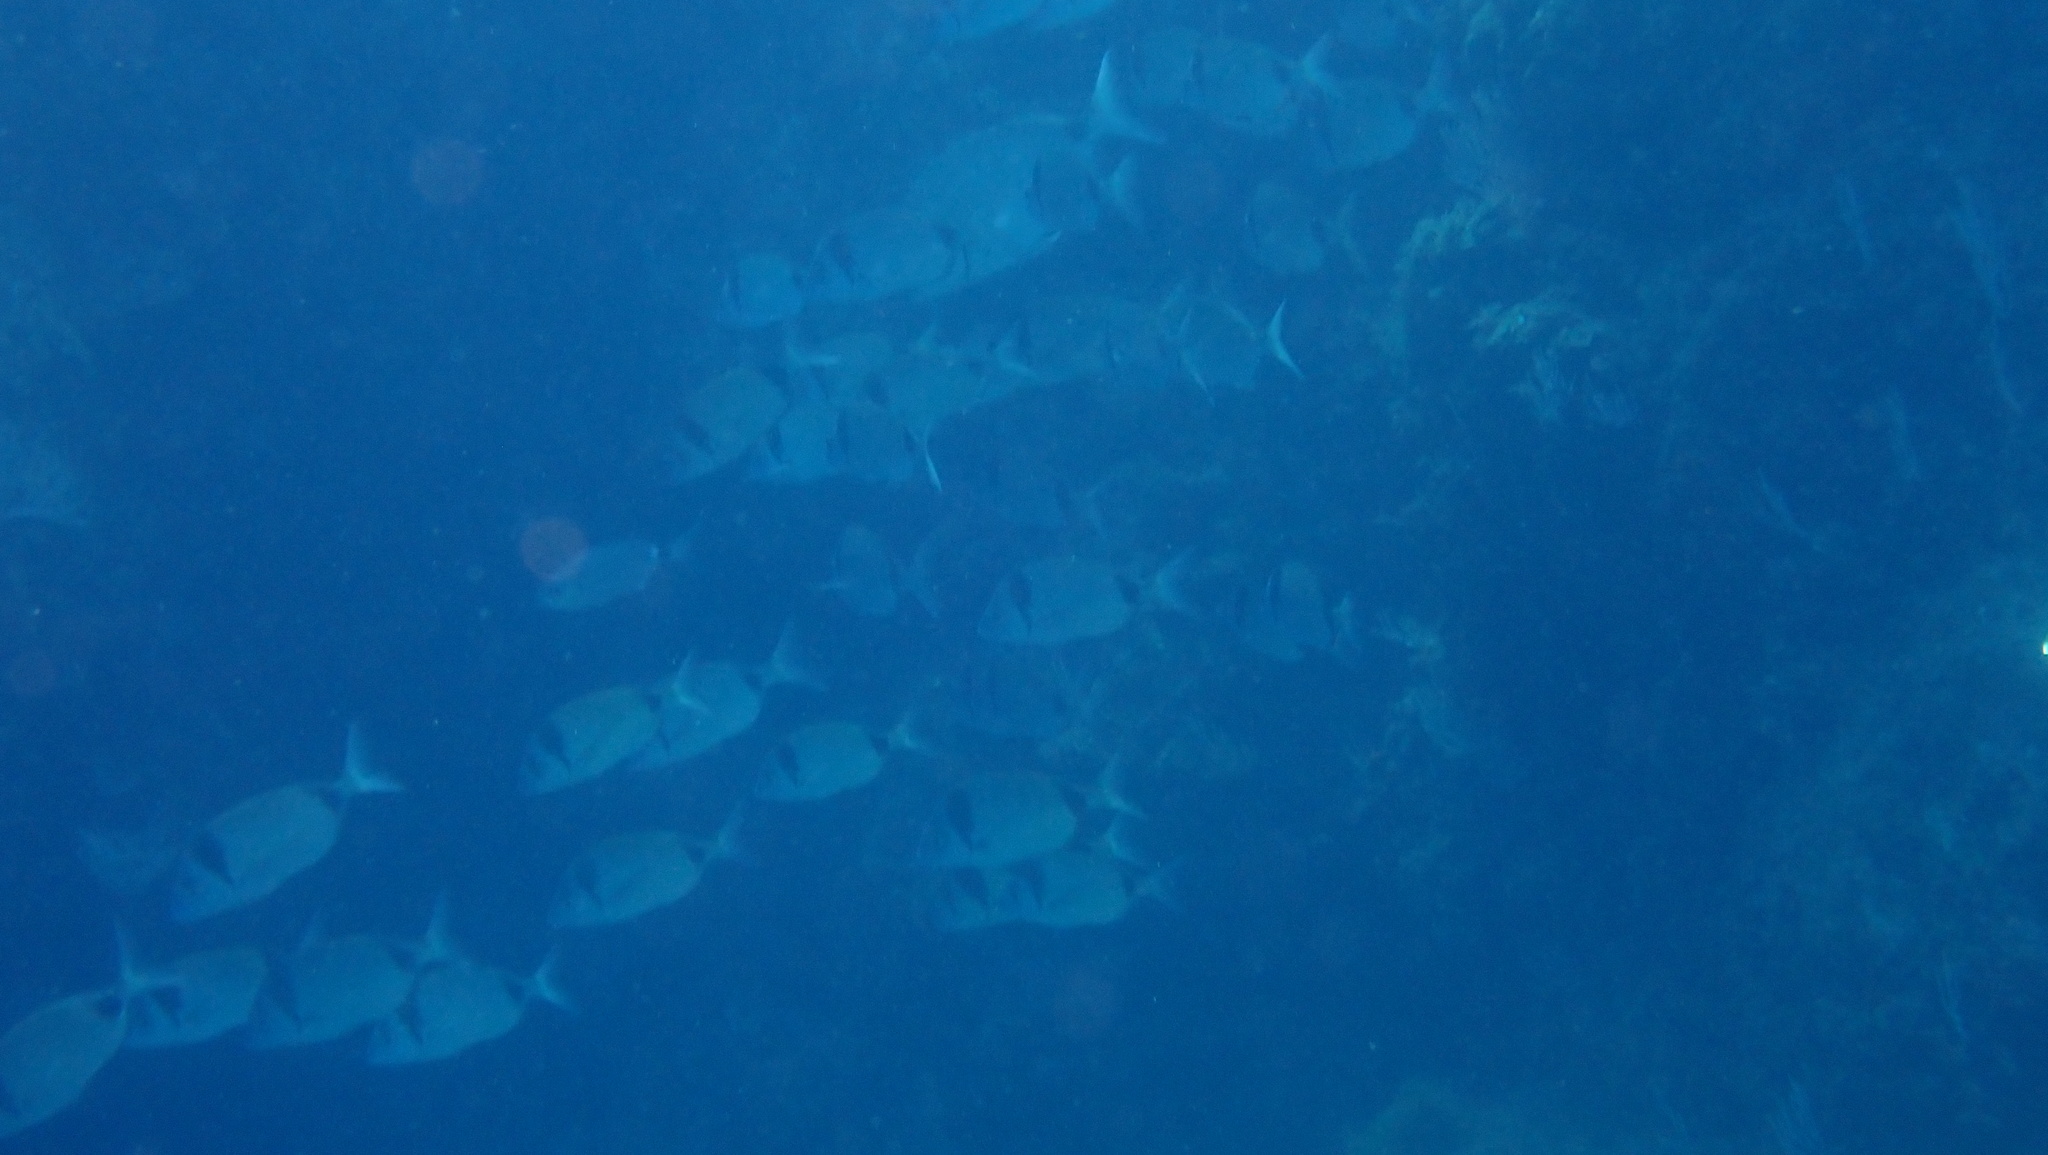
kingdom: Animalia
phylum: Chordata
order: Perciformes
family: Sparidae
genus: Diplodus
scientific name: Diplodus vulgaris
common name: Common two-banded seabream
